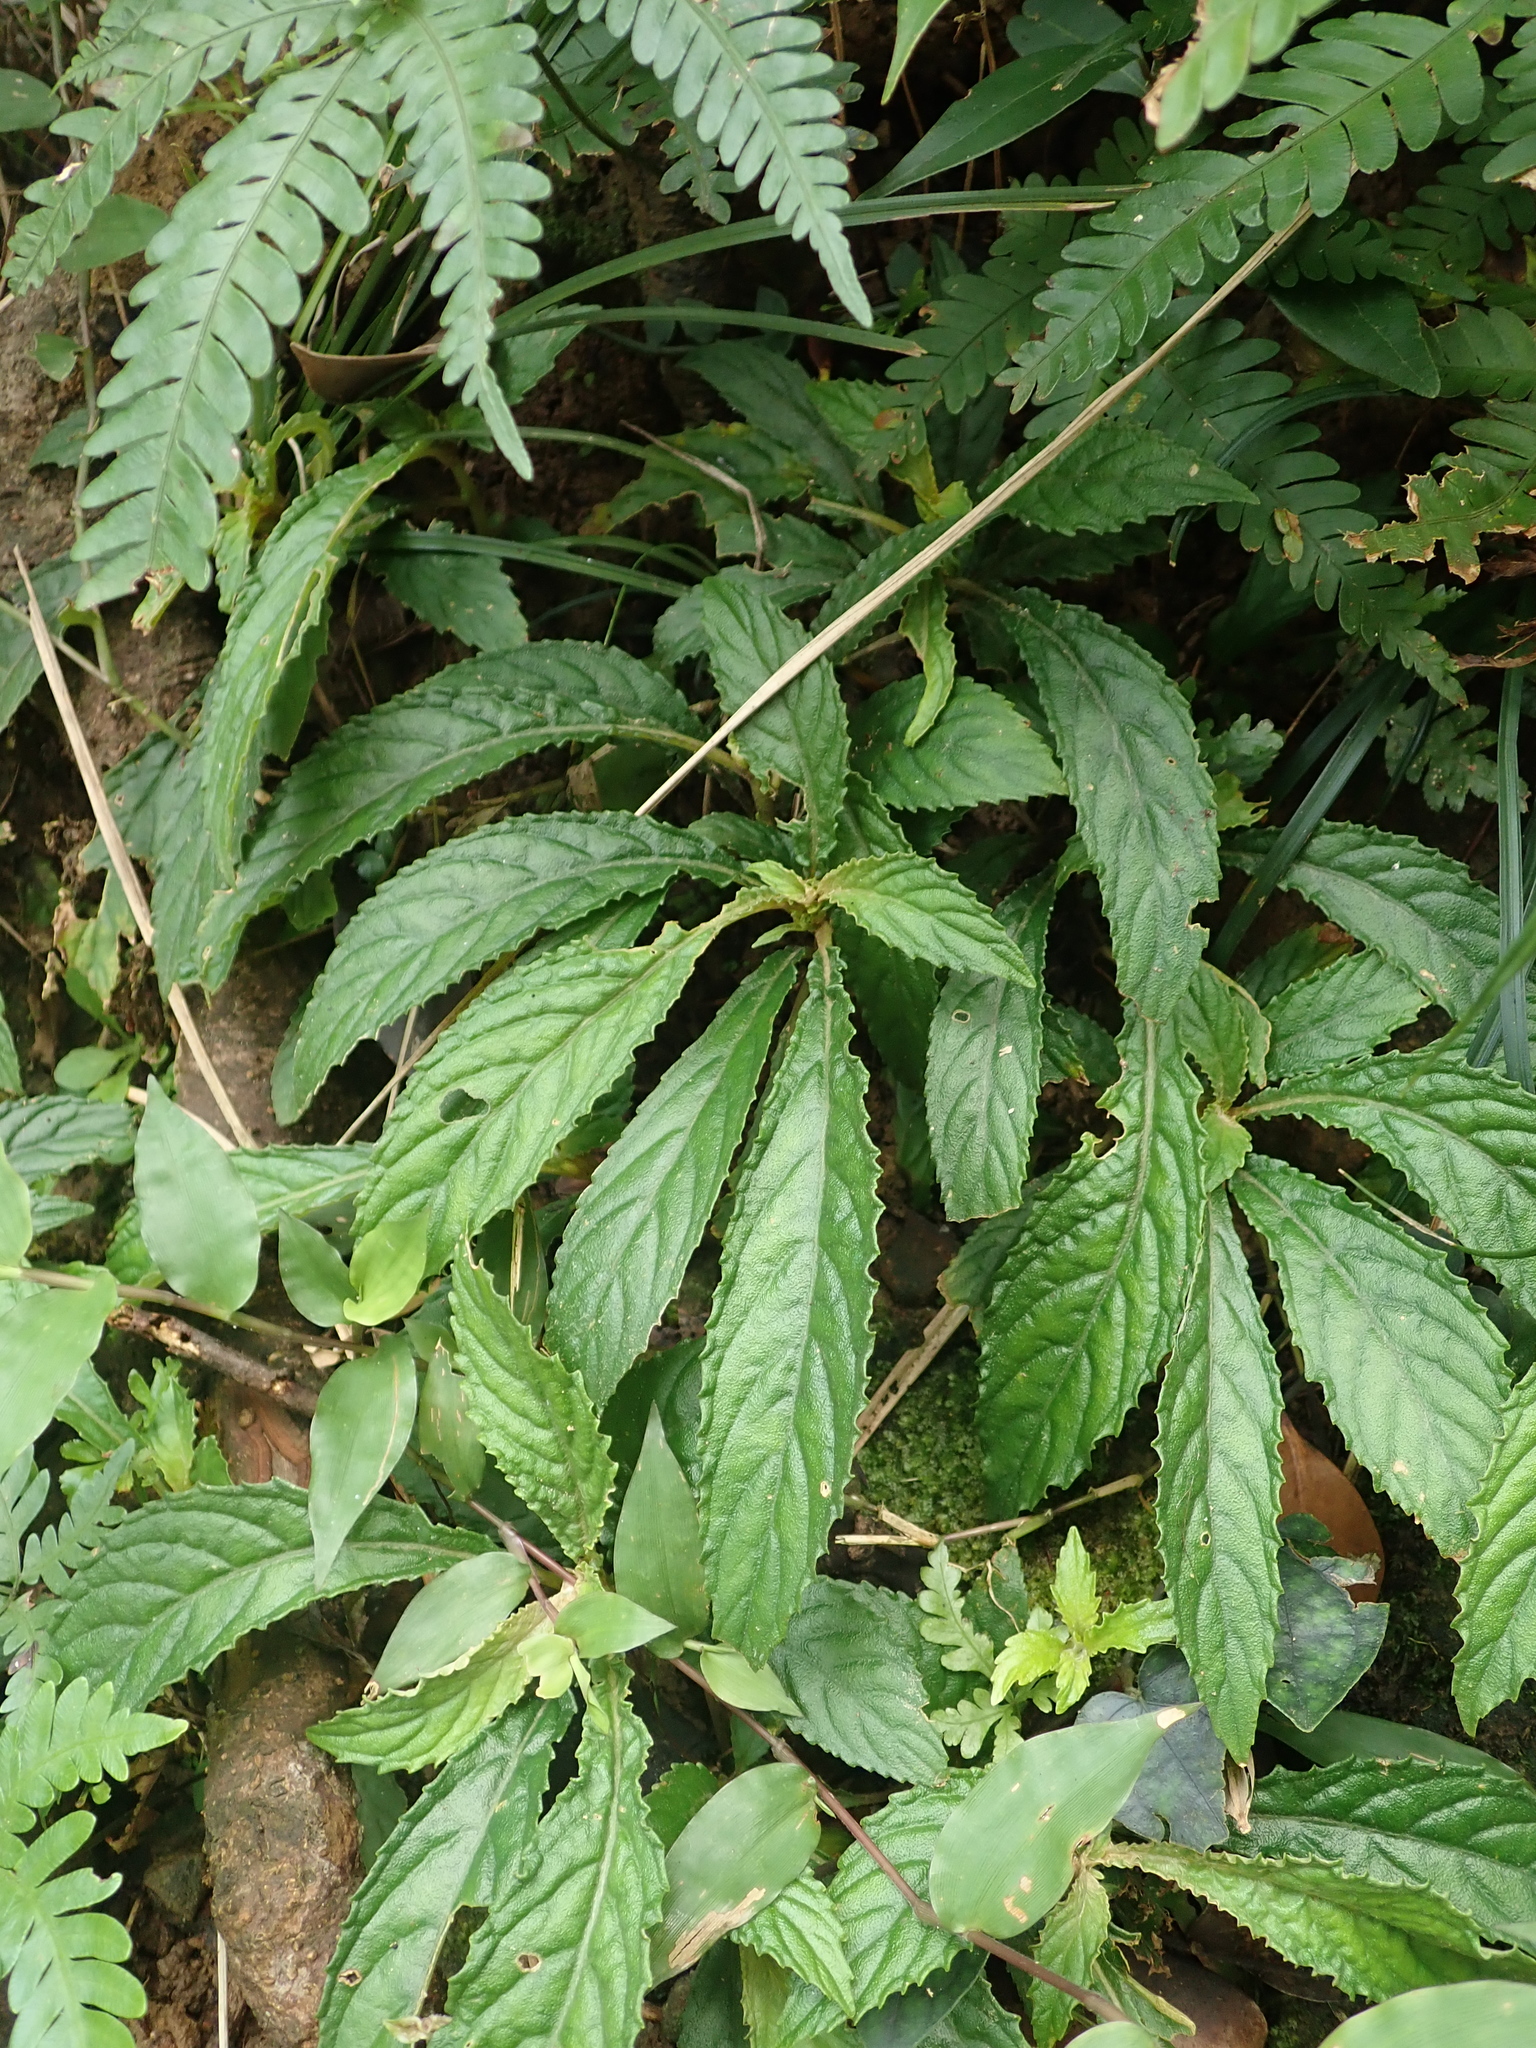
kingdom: Plantae
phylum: Tracheophyta
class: Magnoliopsida
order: Lamiales
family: Gesneriaceae
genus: Rhynchotechum
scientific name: Rhynchotechum discolor
